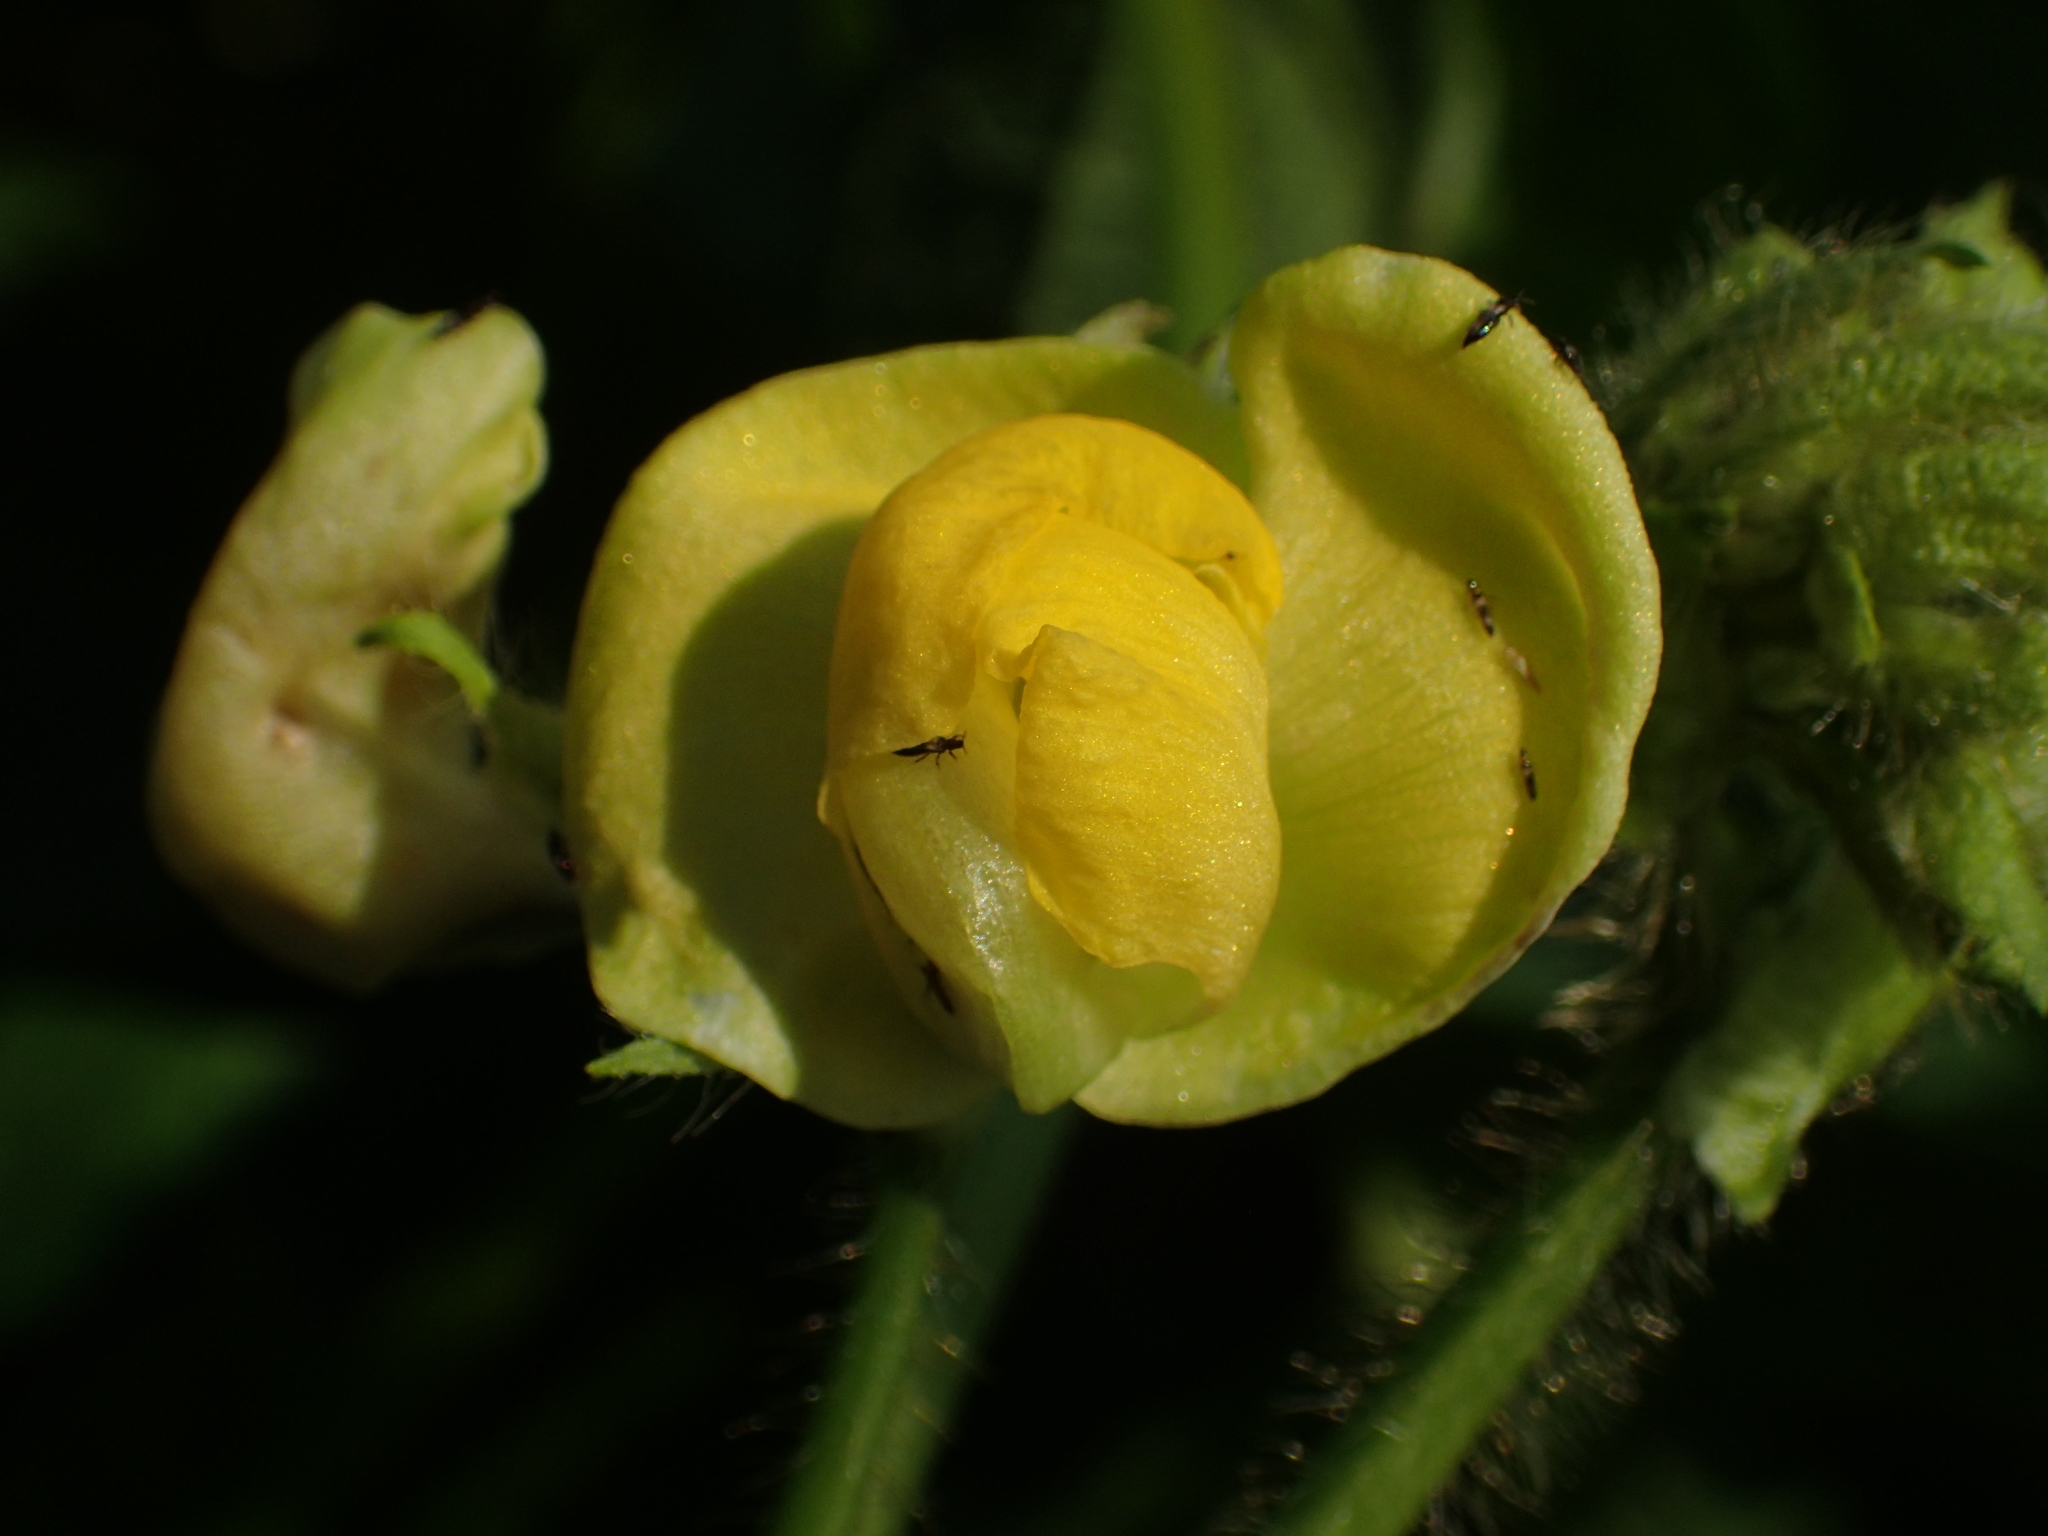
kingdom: Plantae
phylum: Tracheophyta
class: Magnoliopsida
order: Fabales
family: Fabaceae
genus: Vigna
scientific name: Vigna angularis
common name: Adzuki bean
